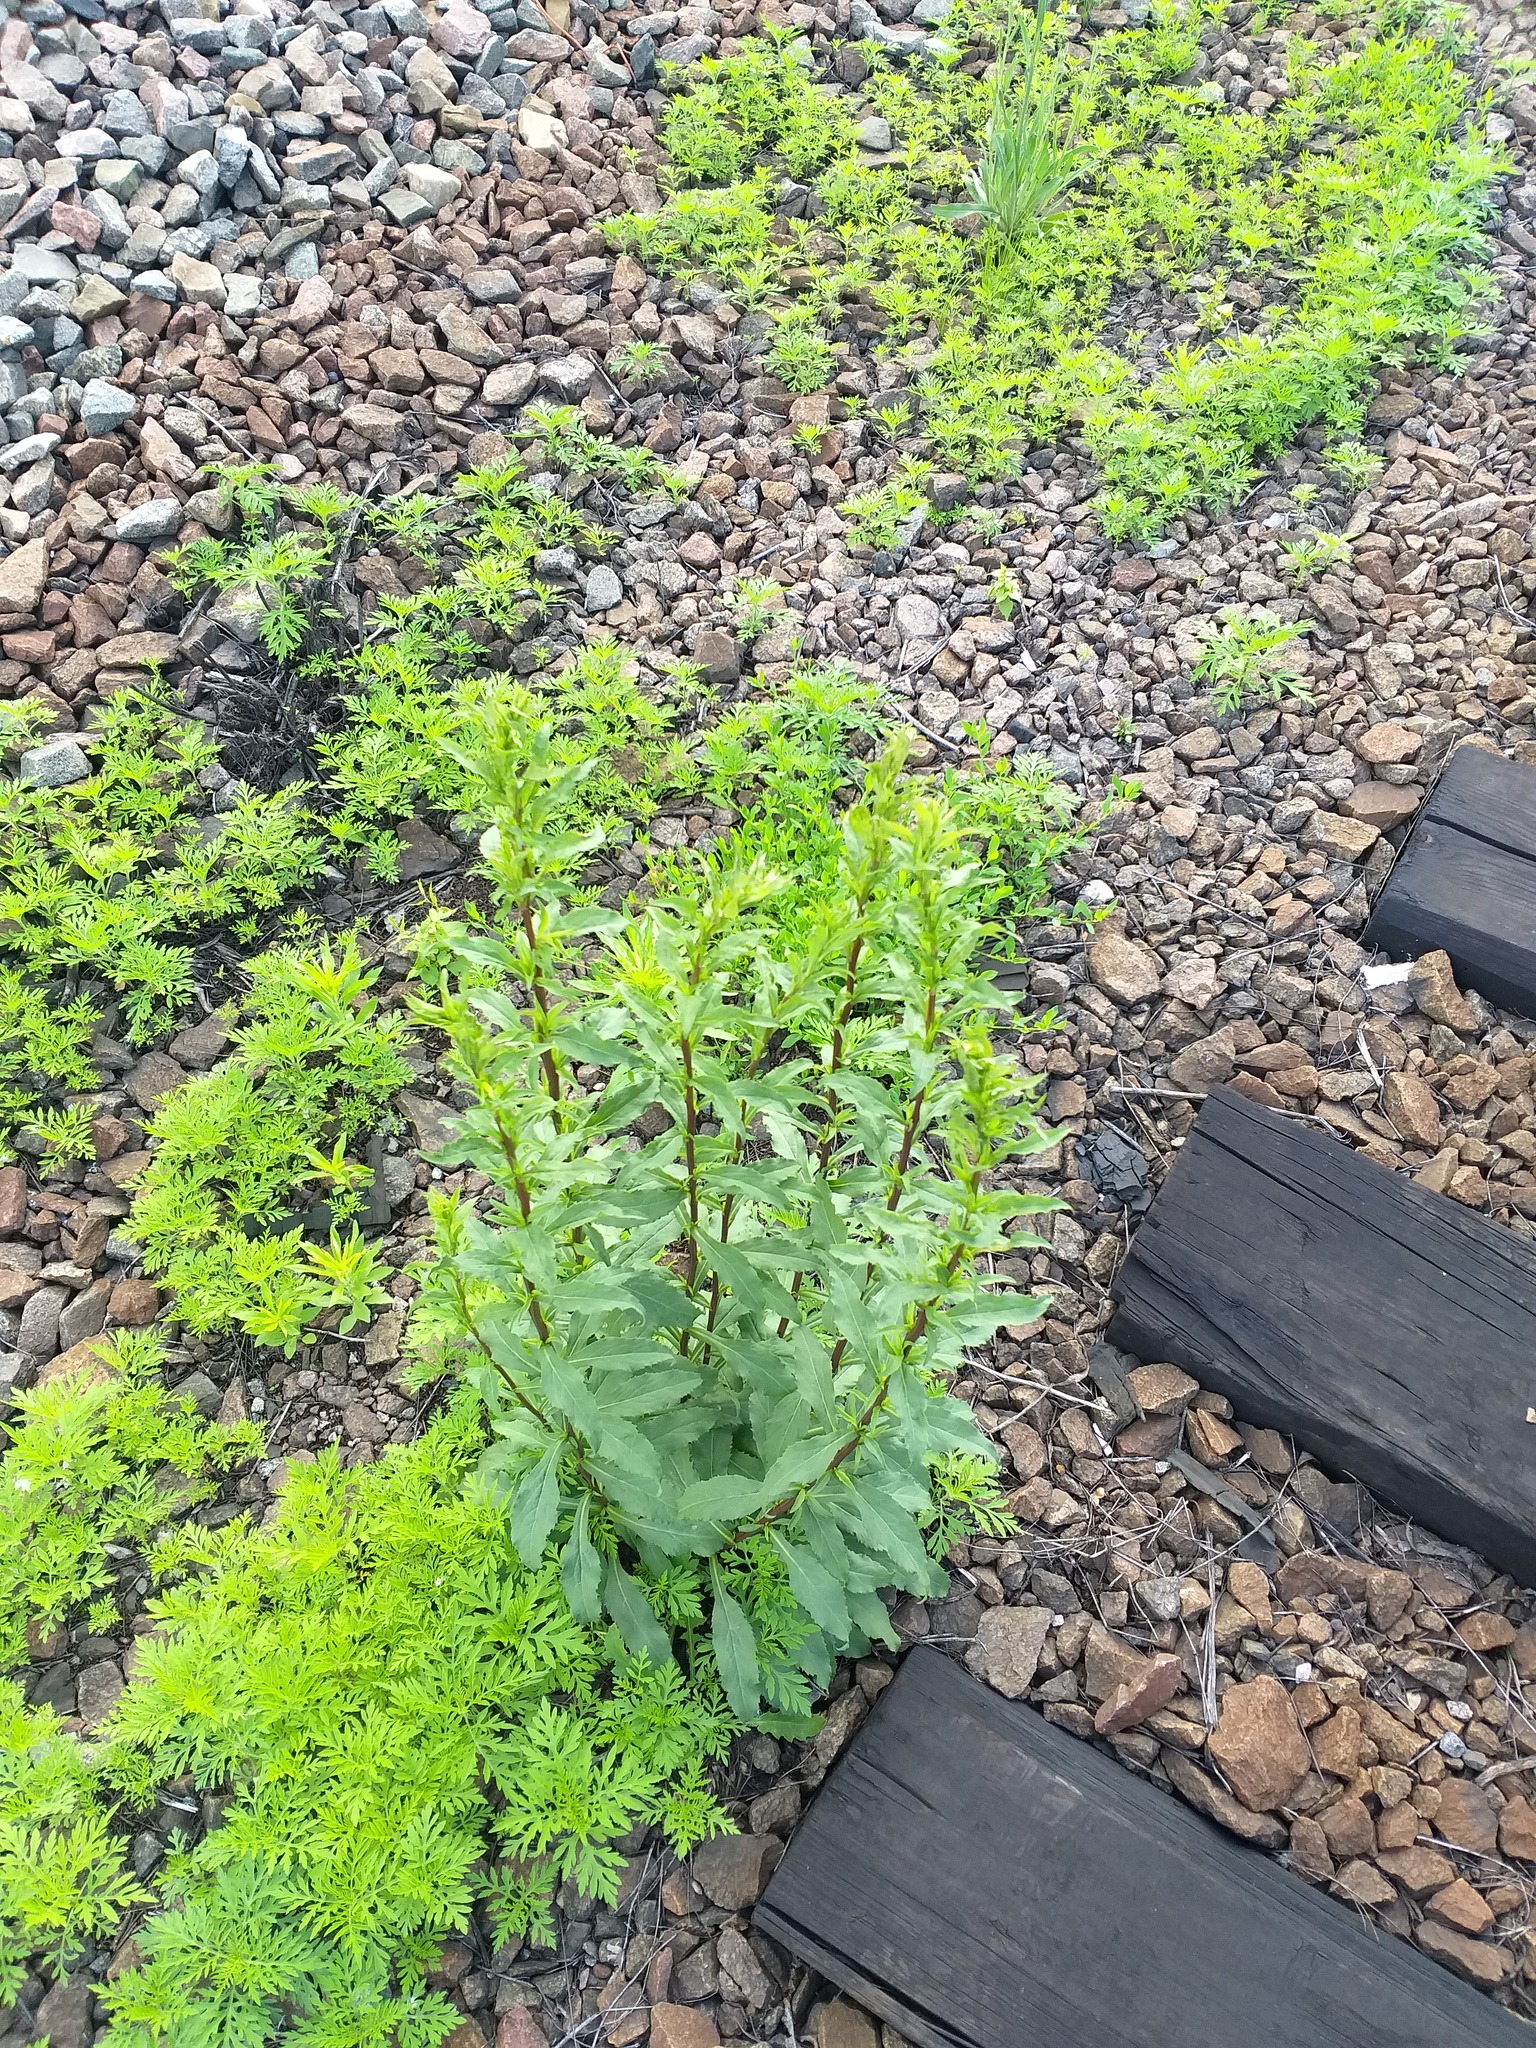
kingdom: Plantae
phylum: Tracheophyta
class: Magnoliopsida
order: Asterales
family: Asteraceae
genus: Solidago
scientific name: Solidago virgaurea
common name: Goldenrod
